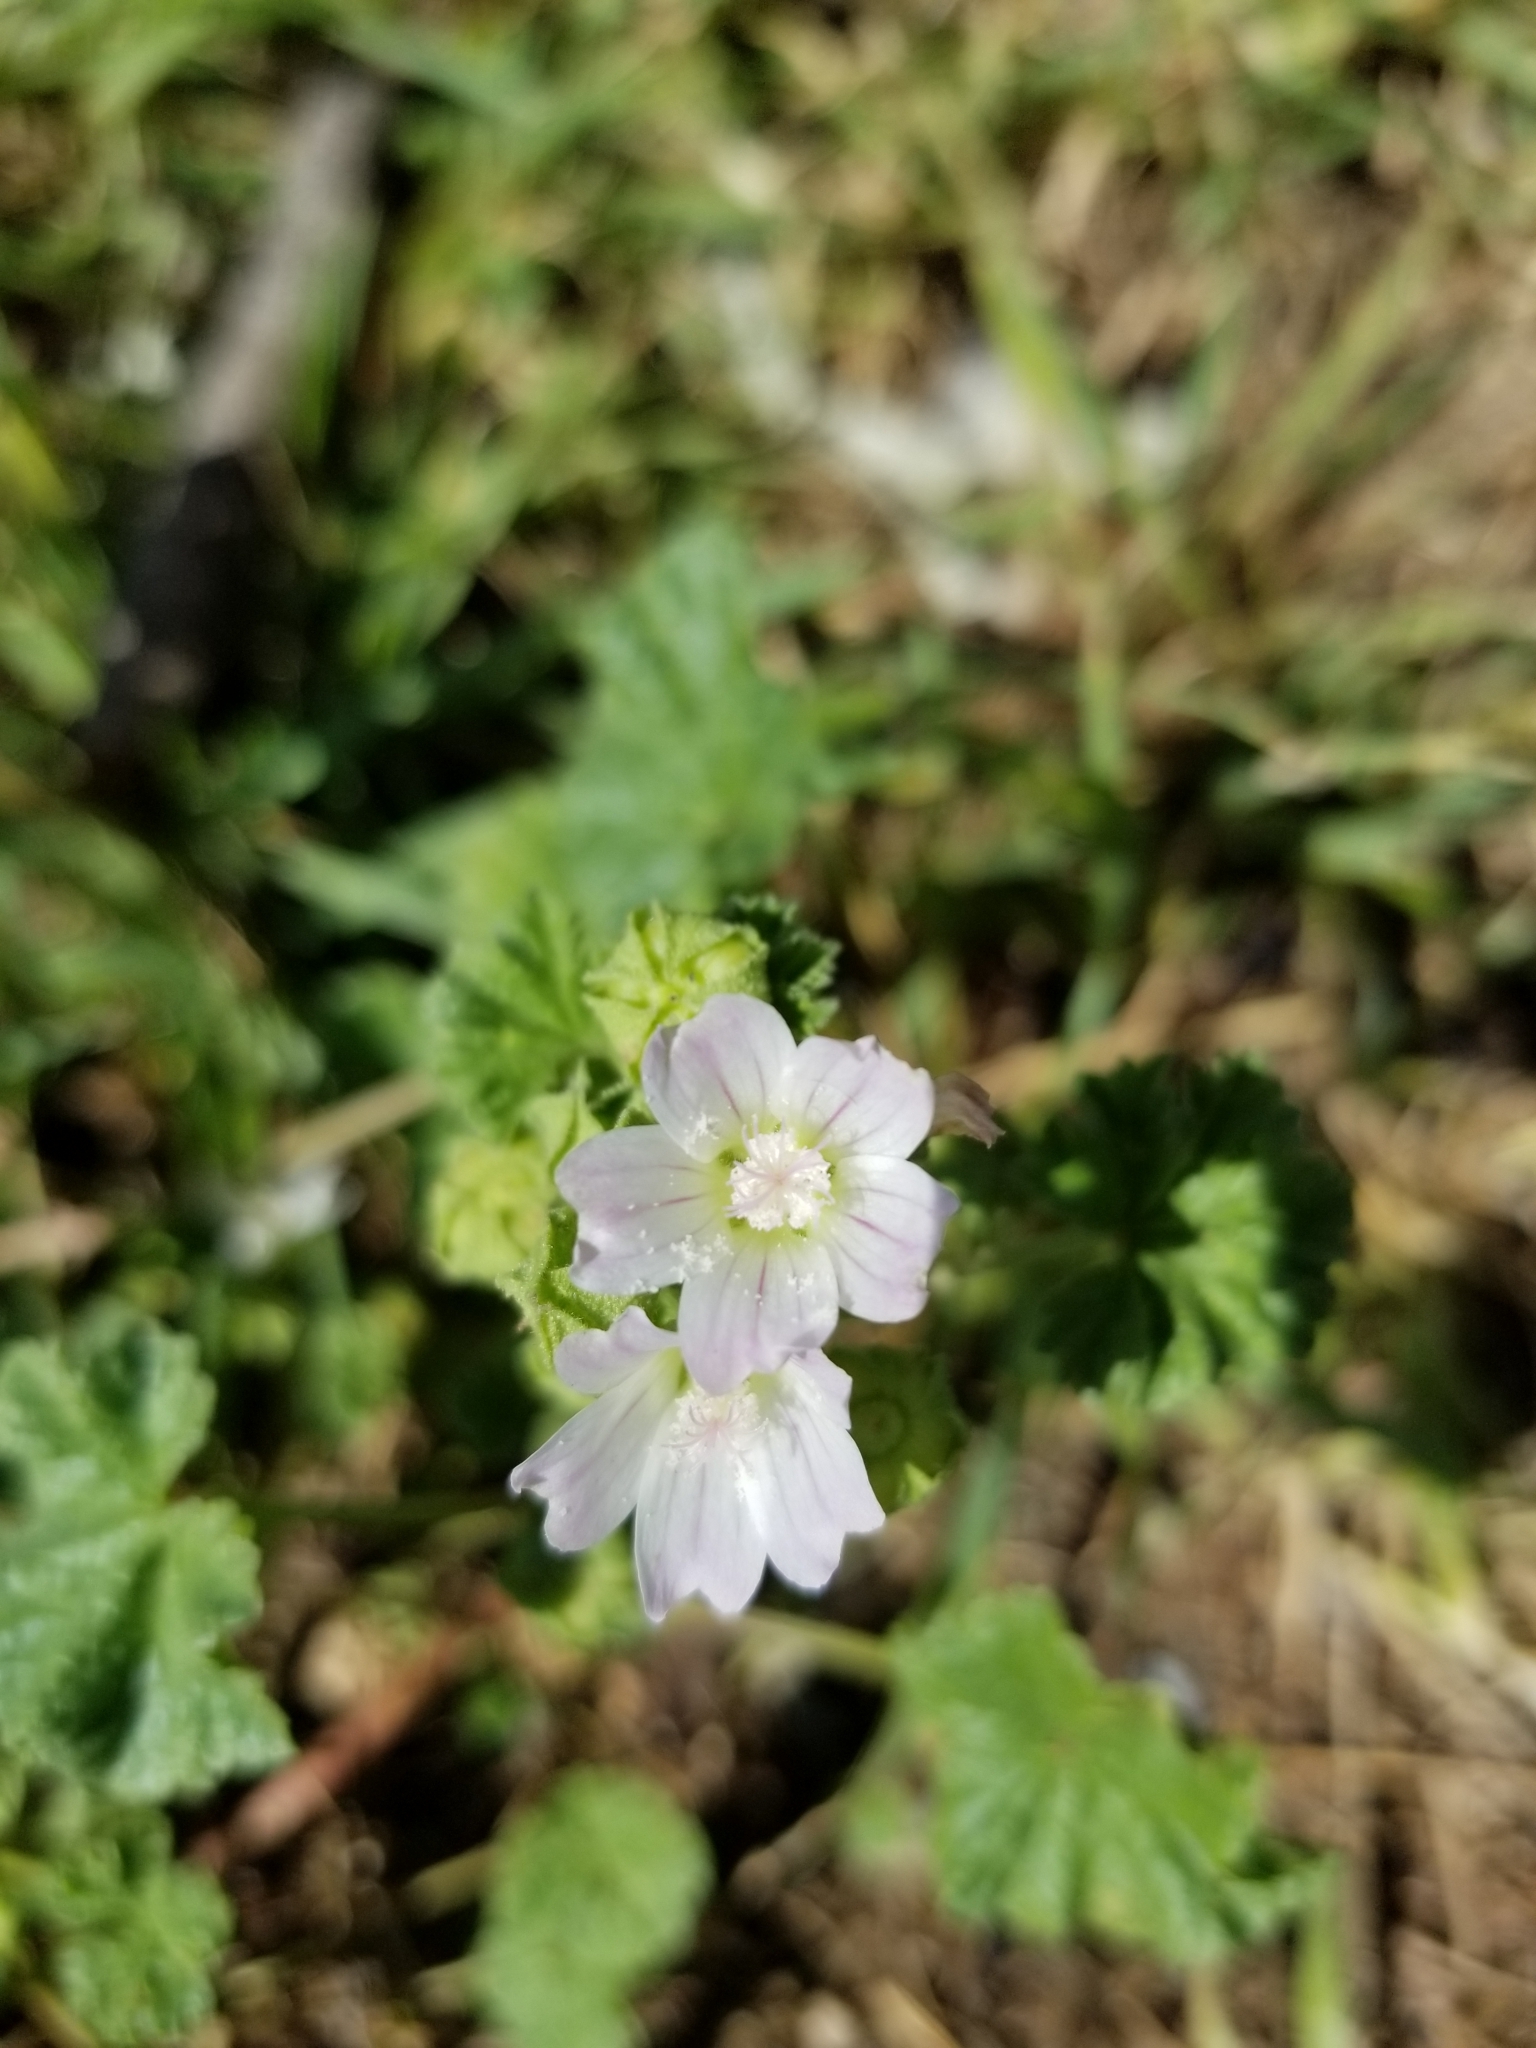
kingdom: Plantae
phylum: Tracheophyta
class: Magnoliopsida
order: Malvales
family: Malvaceae
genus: Malva
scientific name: Malva neglecta
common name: Common mallow
